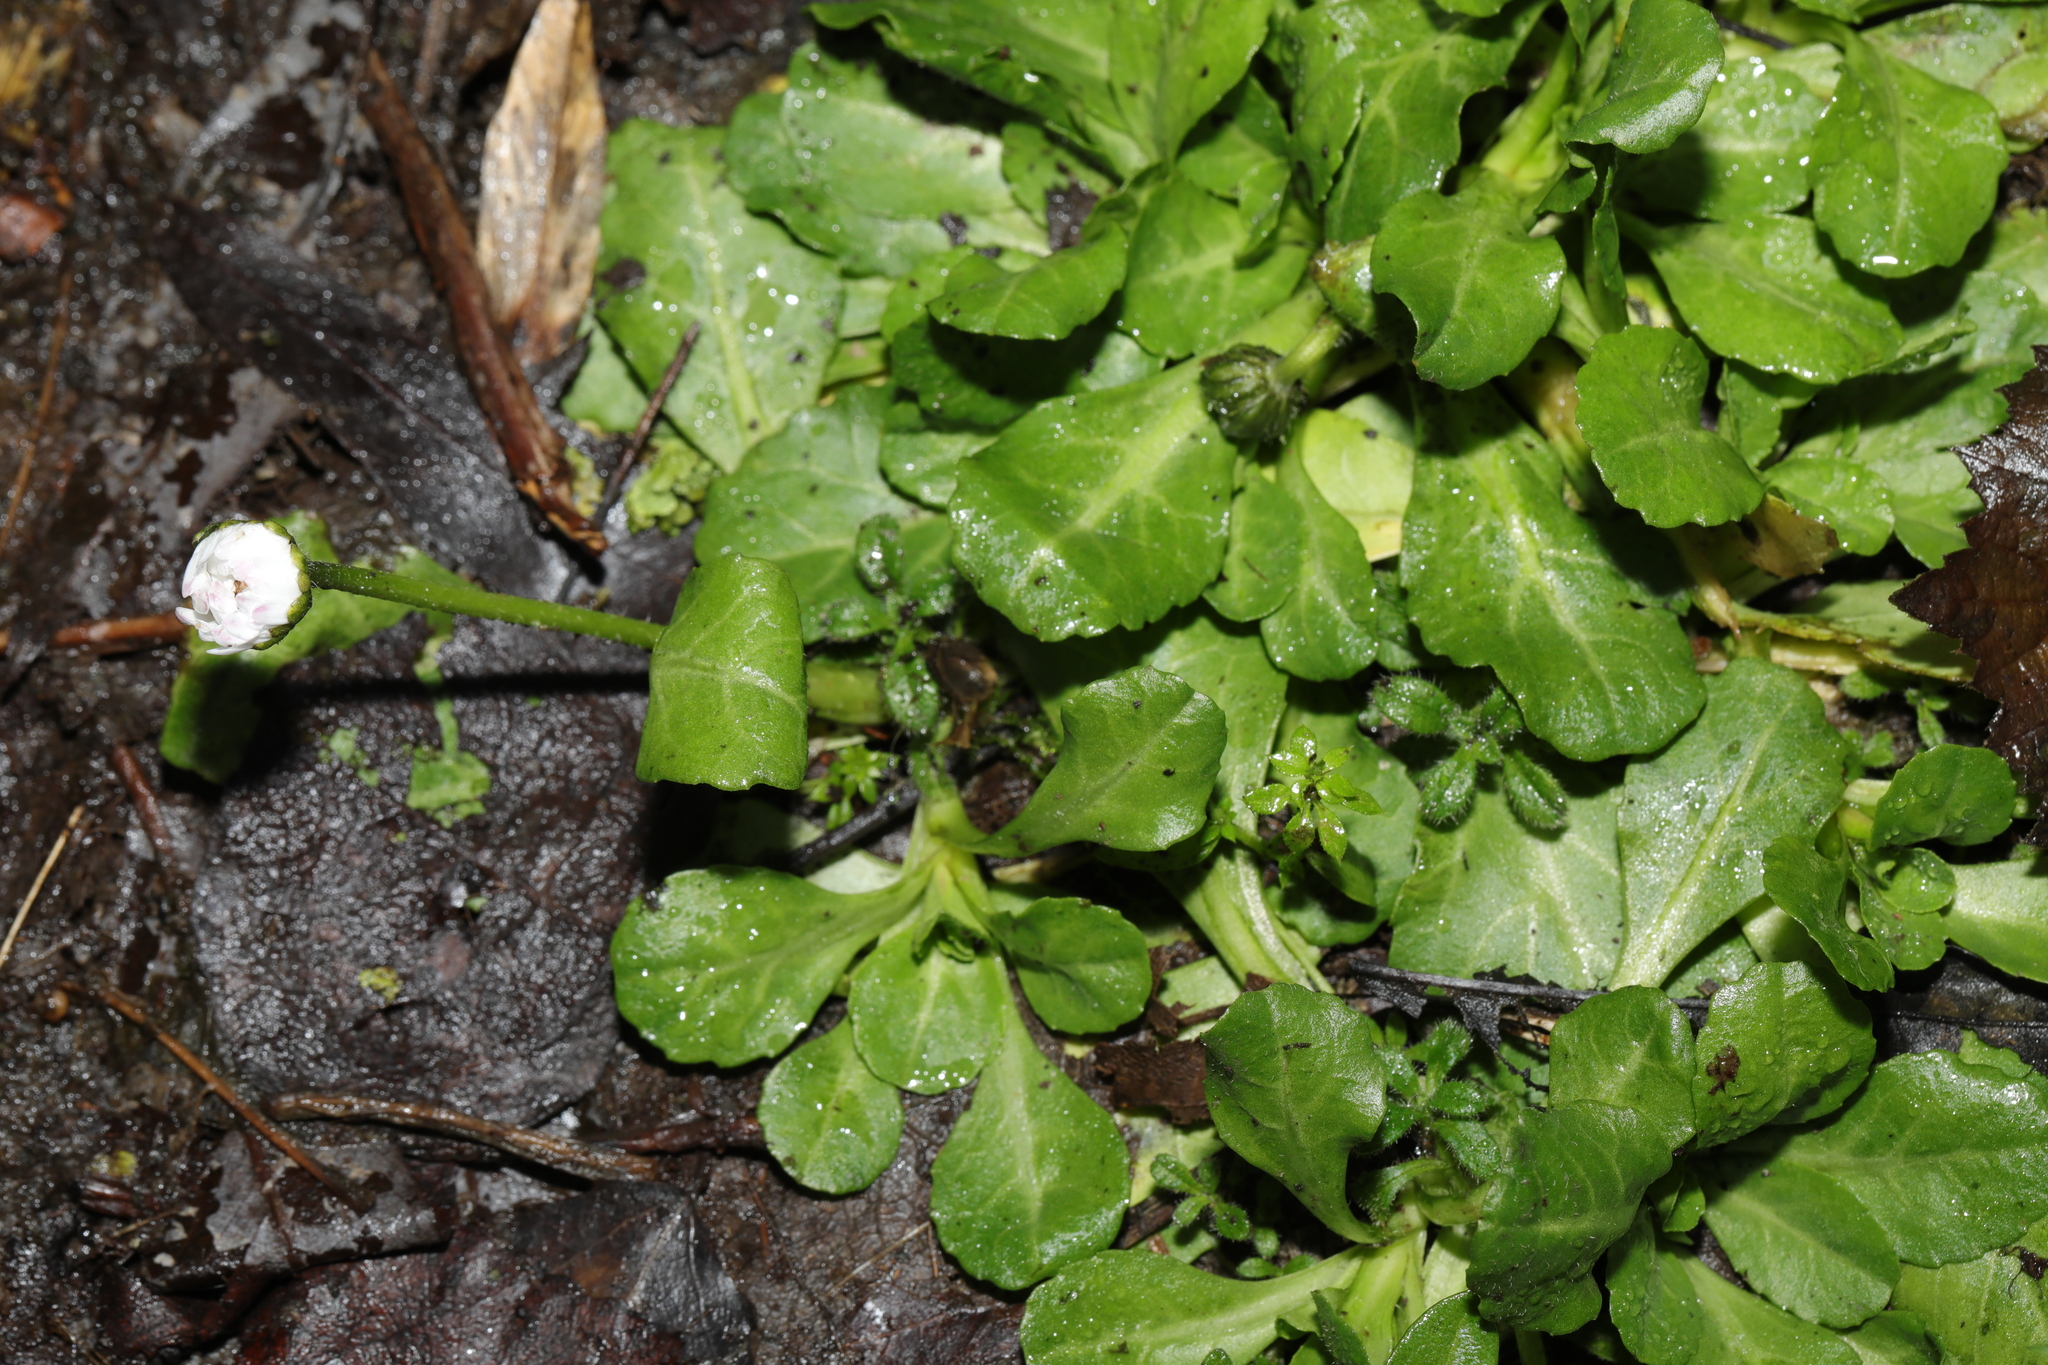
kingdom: Plantae
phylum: Tracheophyta
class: Magnoliopsida
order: Asterales
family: Asteraceae
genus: Bellis
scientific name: Bellis perennis
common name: Lawndaisy
